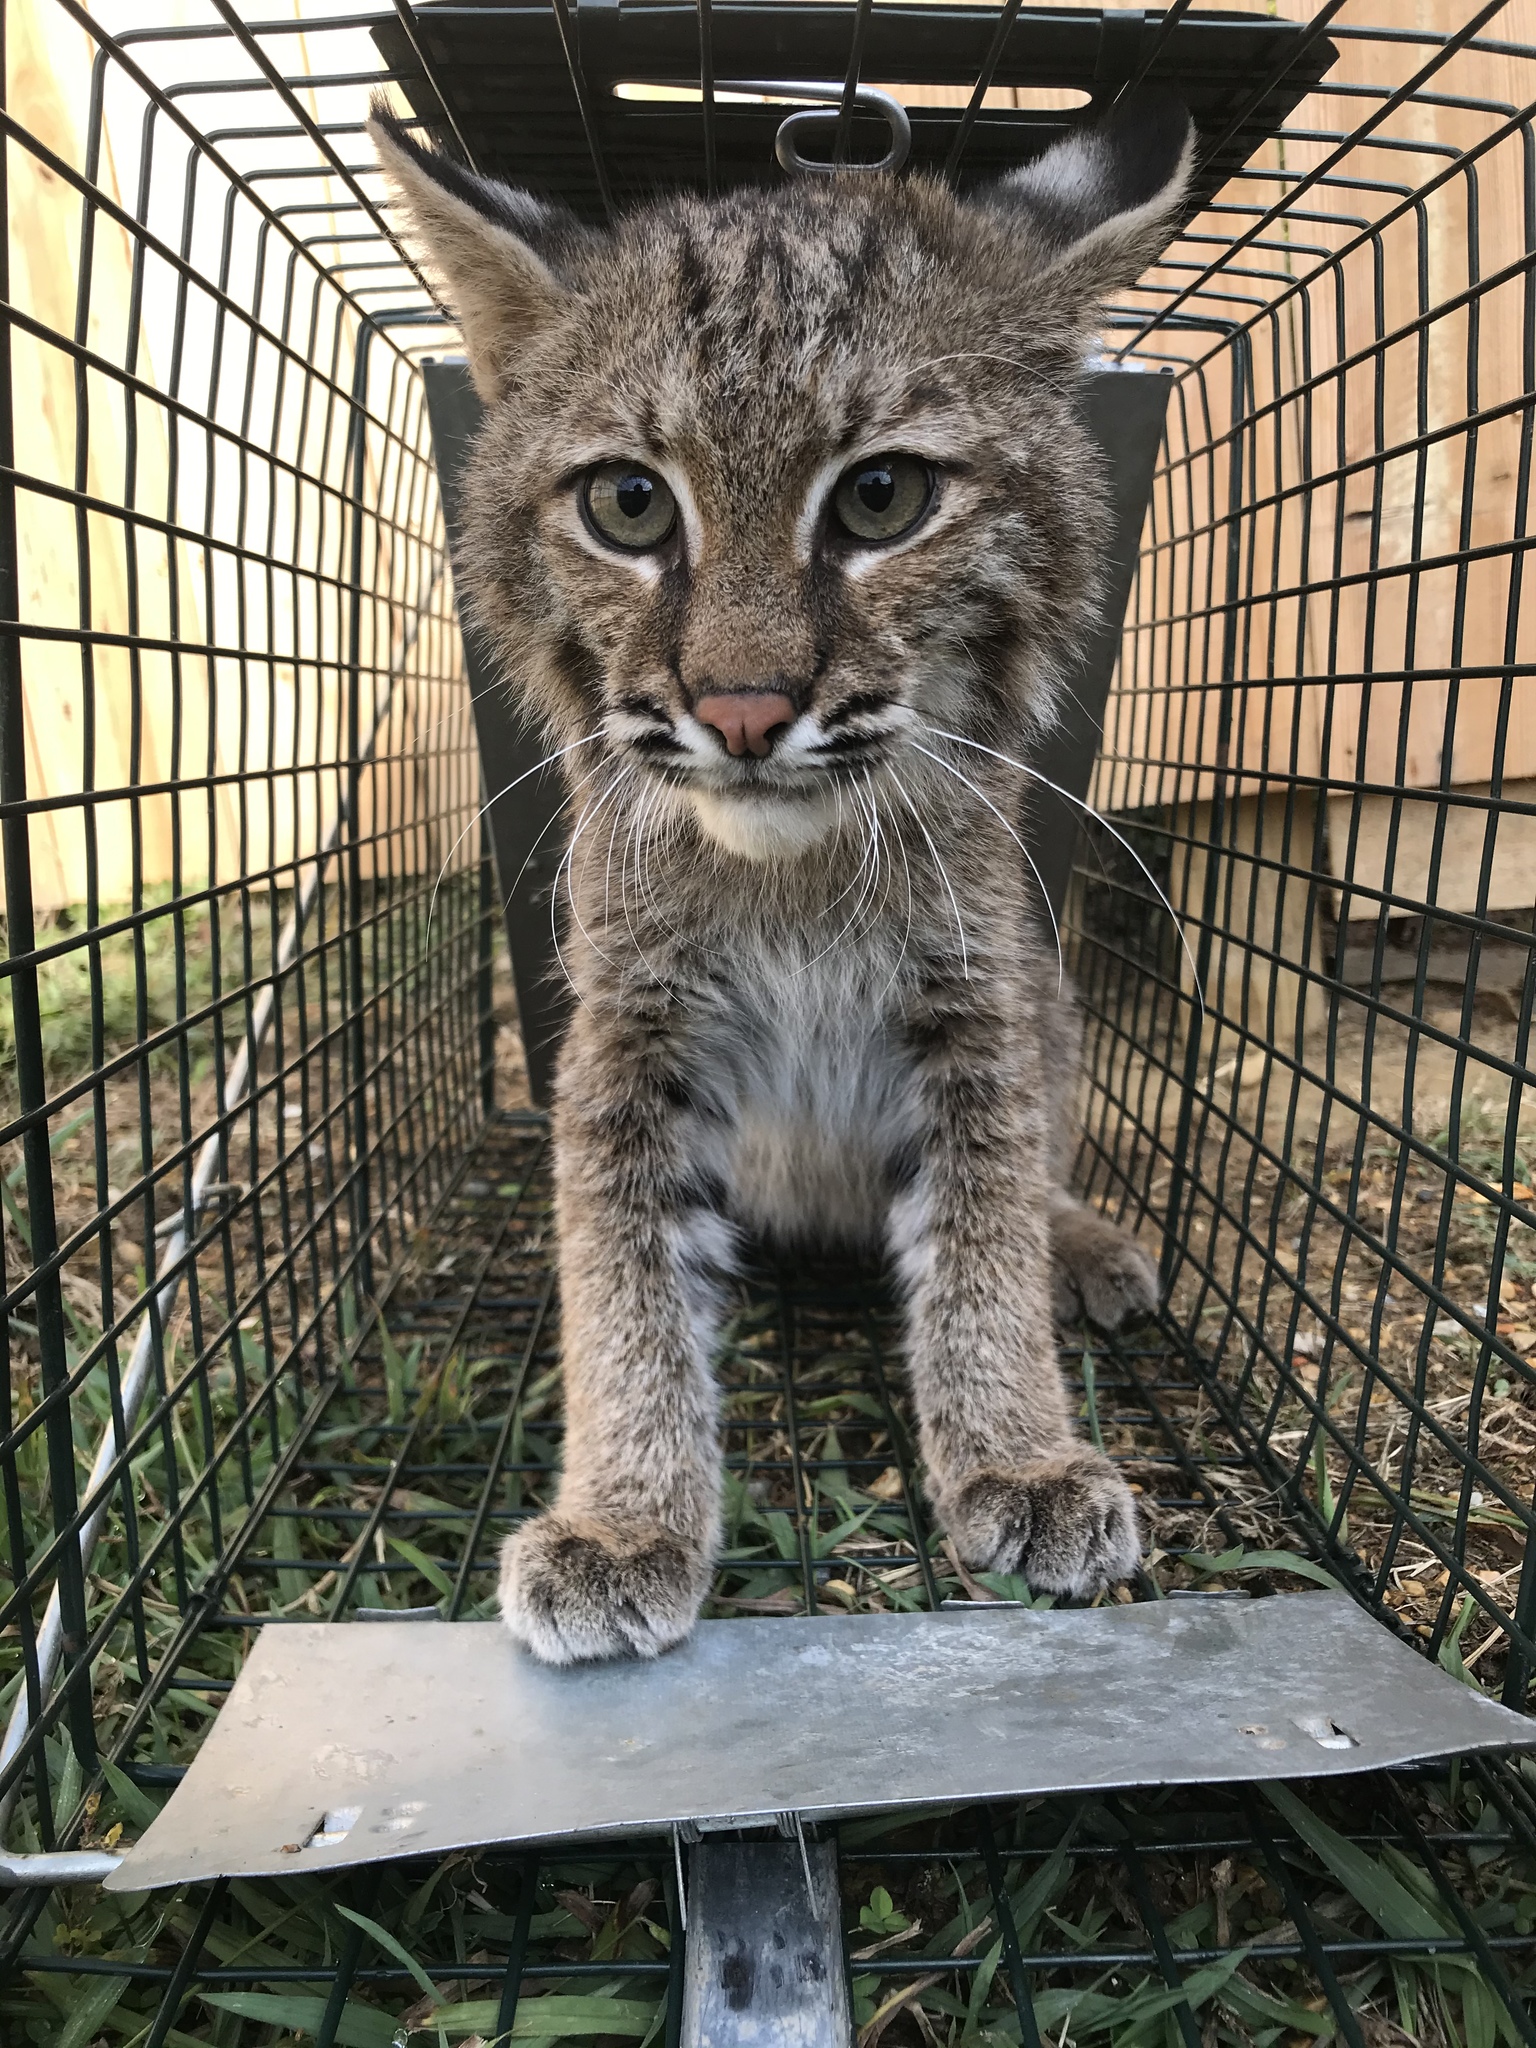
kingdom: Animalia
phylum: Chordata
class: Mammalia
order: Carnivora
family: Felidae
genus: Lynx
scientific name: Lynx rufus
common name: Bobcat
